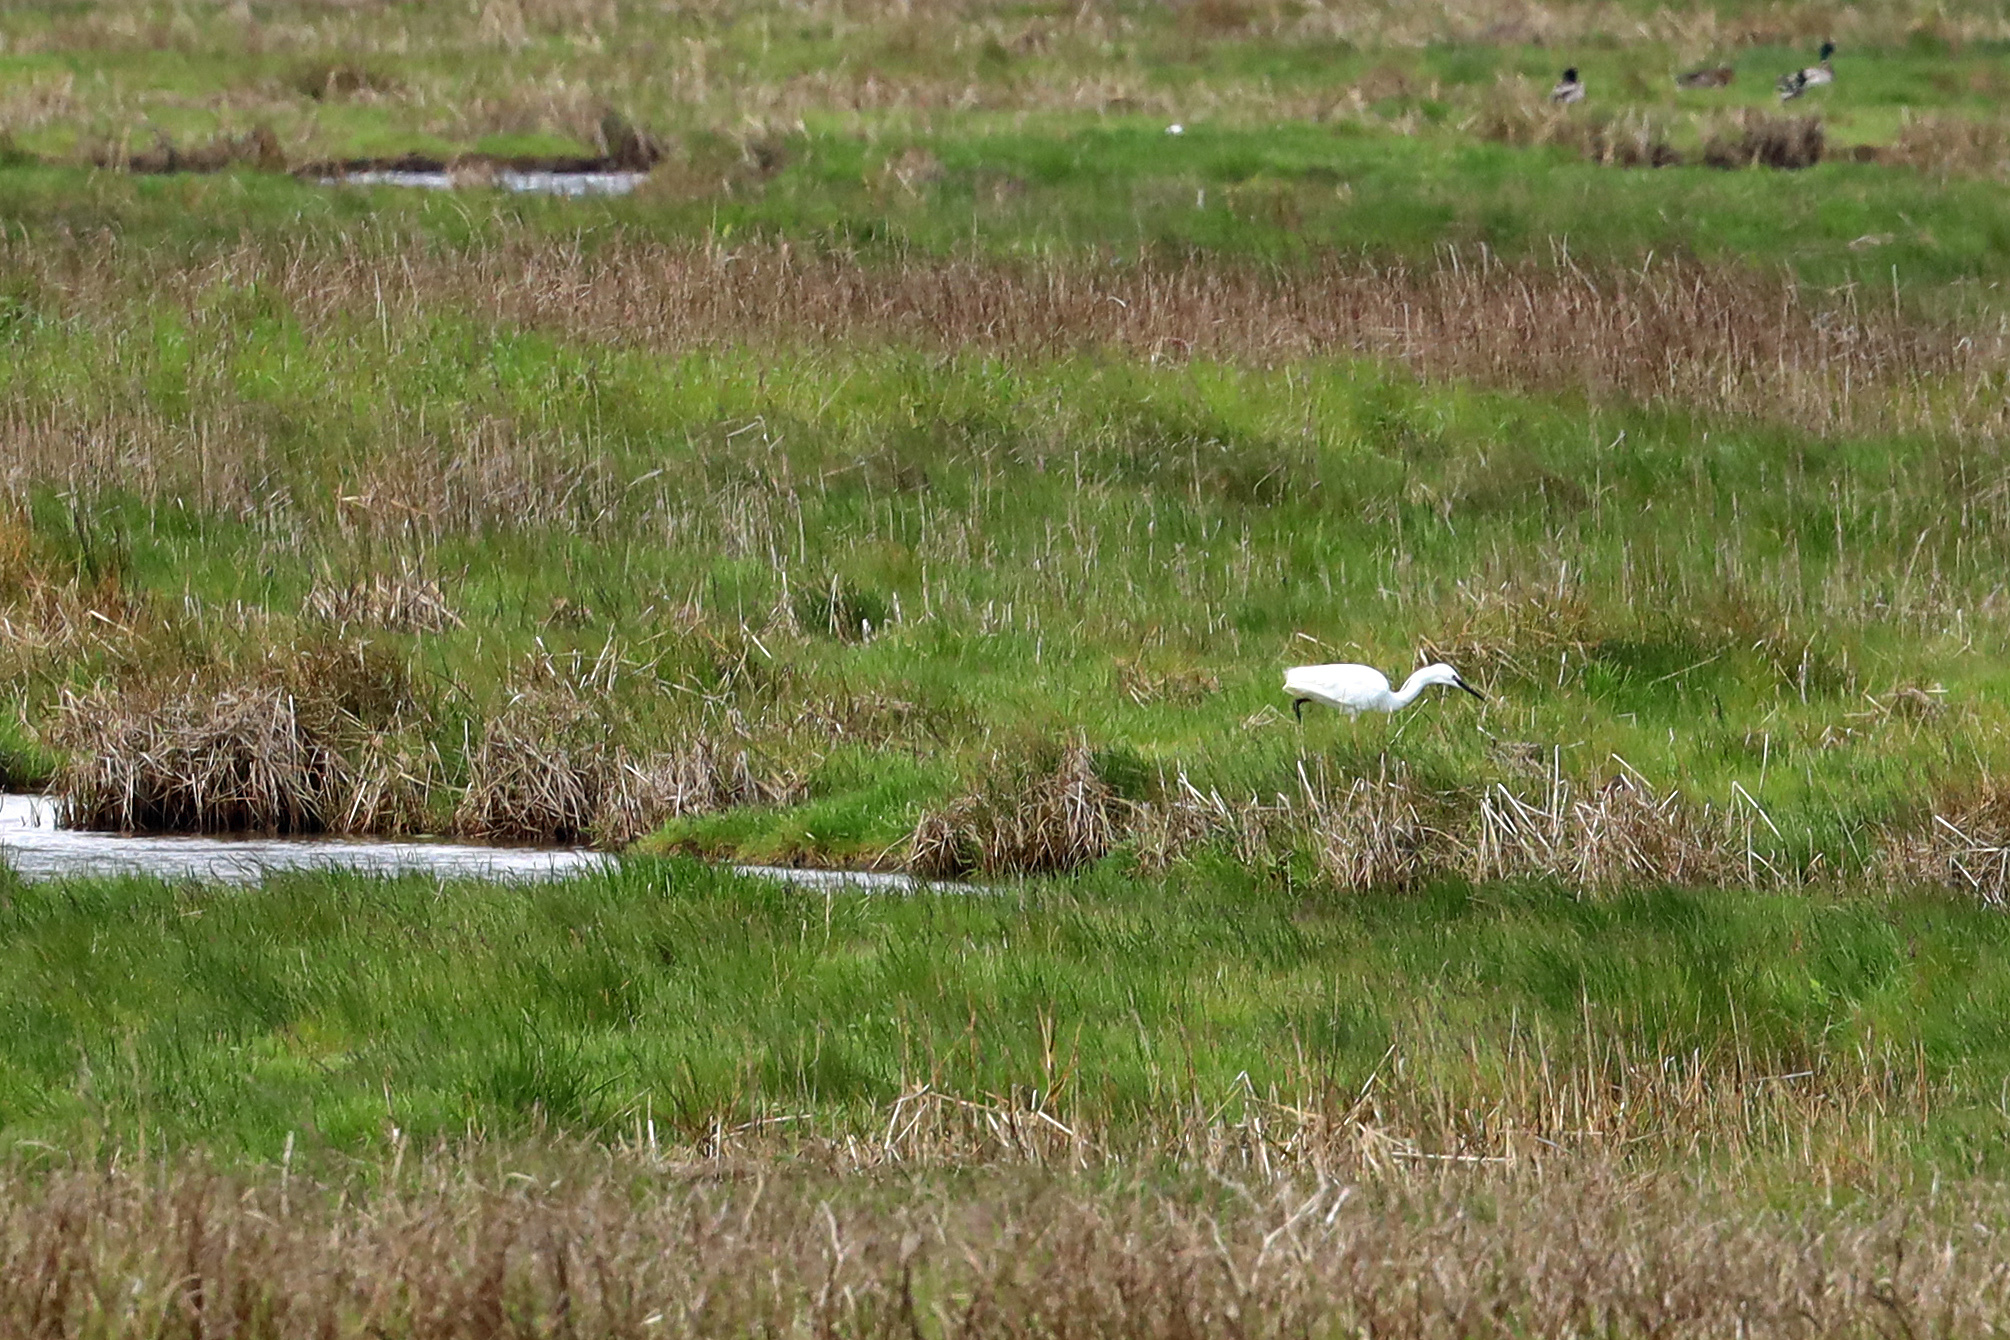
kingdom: Animalia
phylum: Chordata
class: Aves
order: Pelecaniformes
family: Ardeidae
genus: Egretta
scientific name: Egretta garzetta
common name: Little egret
